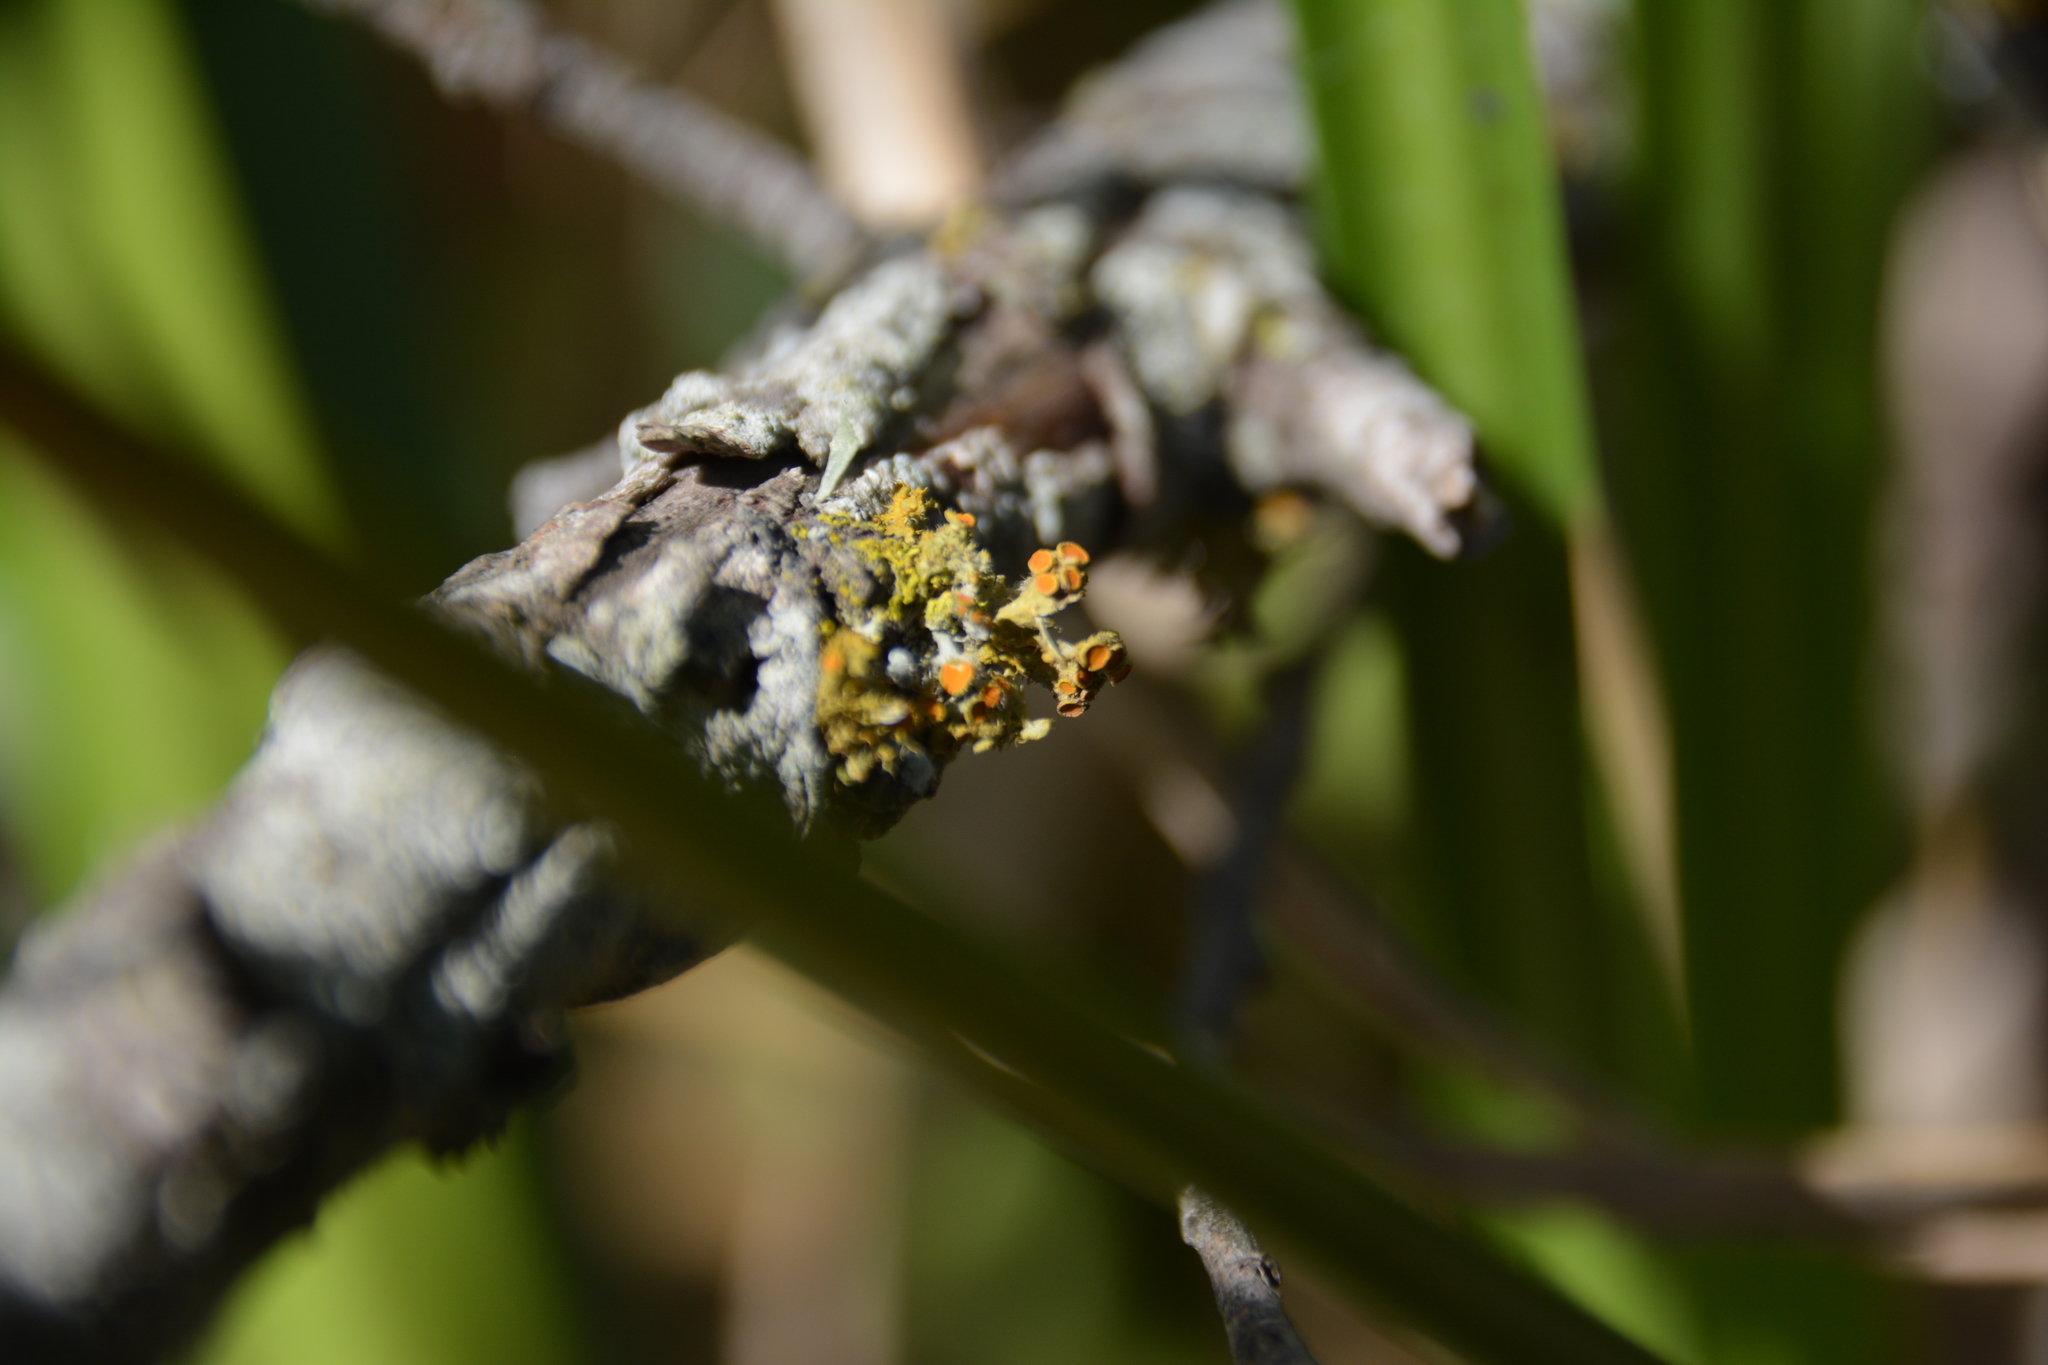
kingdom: Fungi
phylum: Ascomycota
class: Lecanoromycetes
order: Teloschistales
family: Teloschistaceae
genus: Niorma
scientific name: Niorma chrysophthalma
